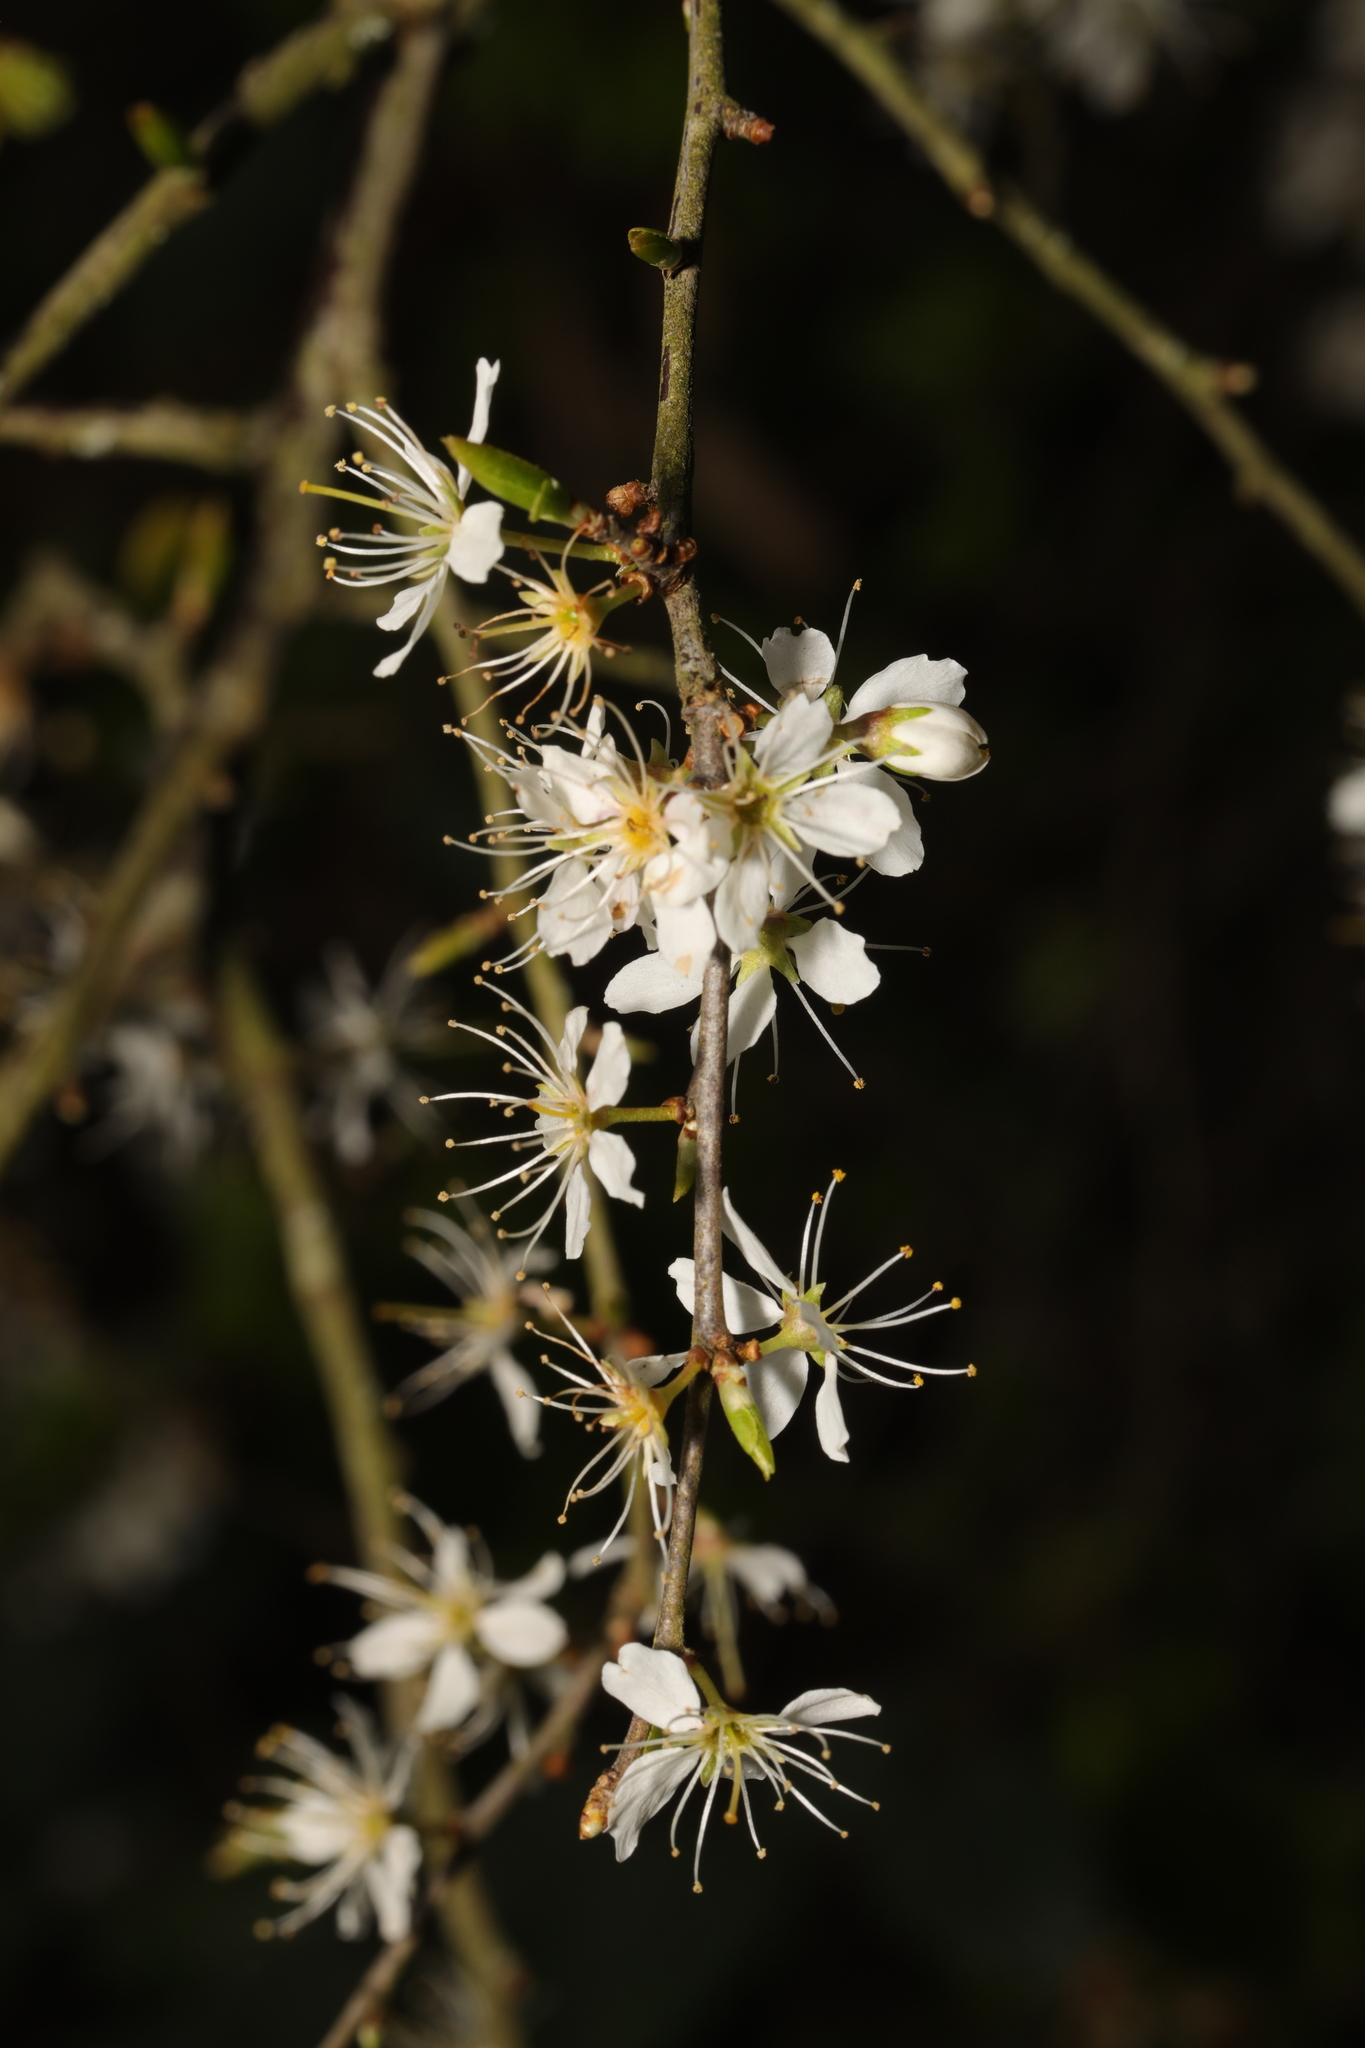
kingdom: Plantae
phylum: Tracheophyta
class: Magnoliopsida
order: Rosales
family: Rosaceae
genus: Prunus
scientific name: Prunus spinosa
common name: Blackthorn
